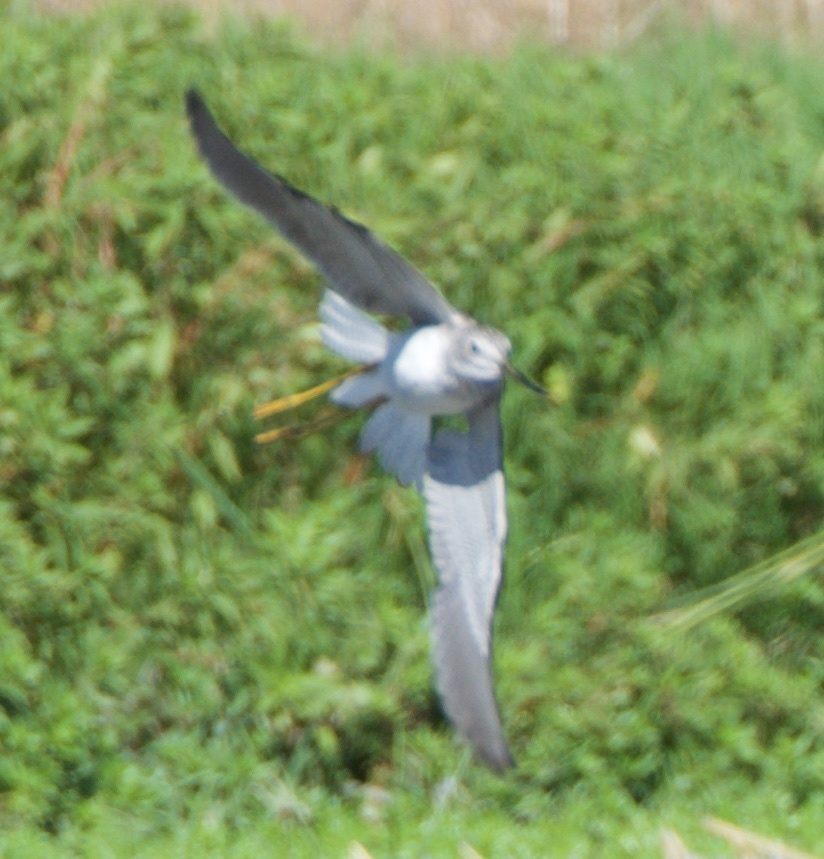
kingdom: Animalia
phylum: Chordata
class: Aves
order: Charadriiformes
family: Scolopacidae
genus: Tringa
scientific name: Tringa melanoleuca
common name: Greater yellowlegs
